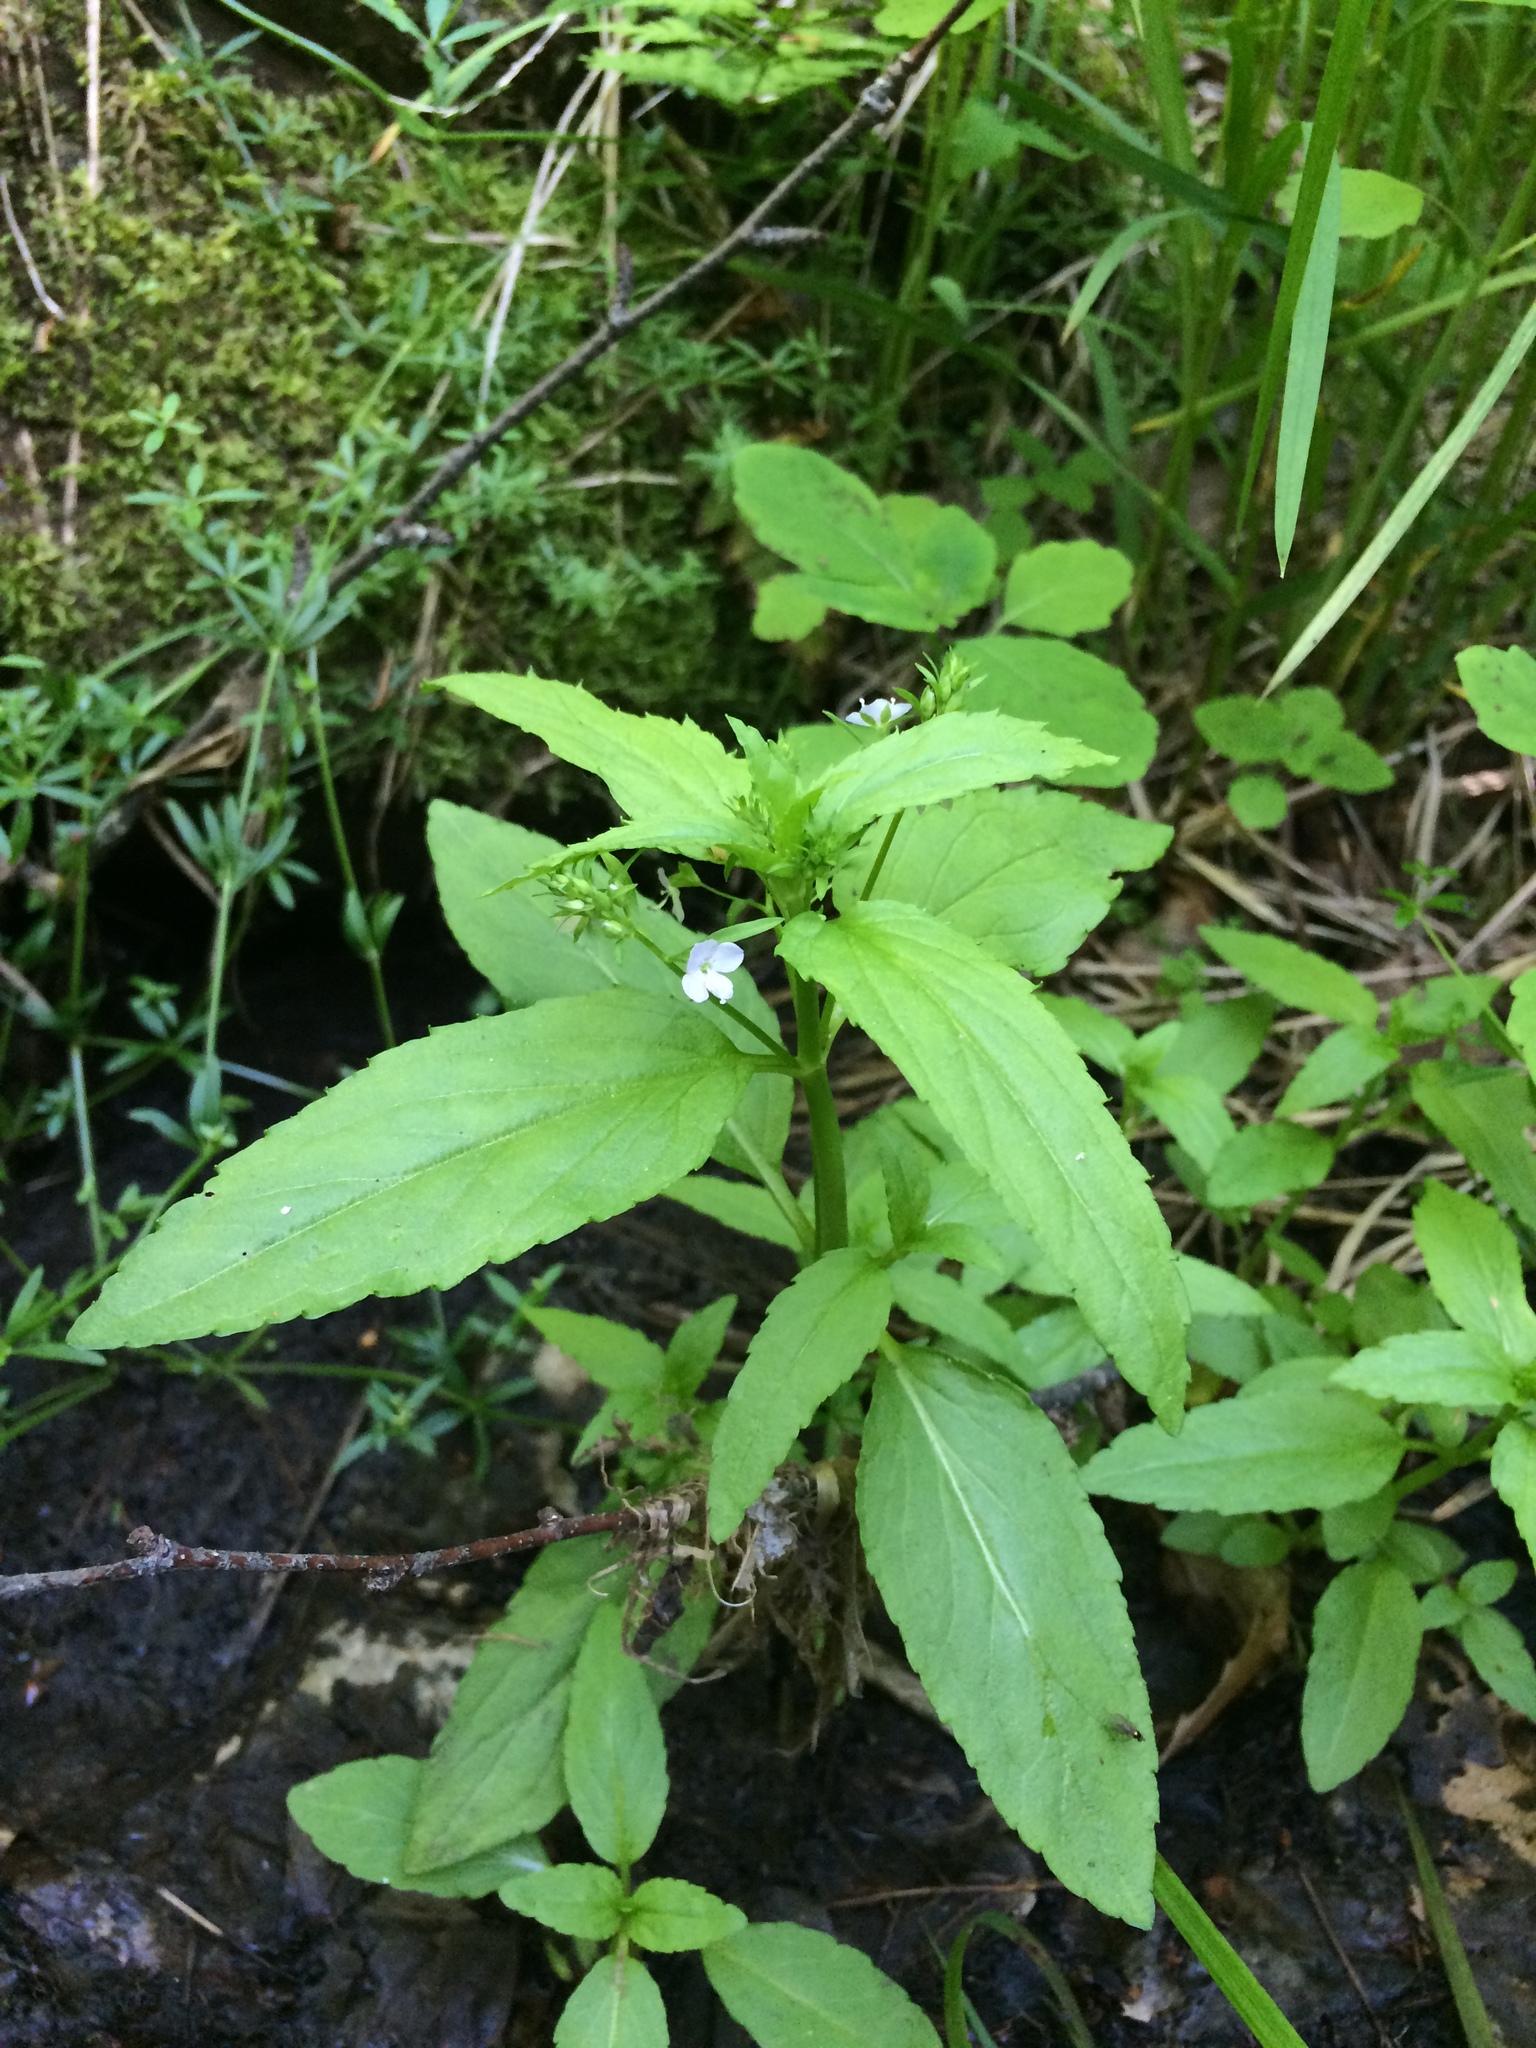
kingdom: Plantae
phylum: Tracheophyta
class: Magnoliopsida
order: Lamiales
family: Plantaginaceae
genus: Veronica
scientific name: Veronica americana
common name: American brooklime
